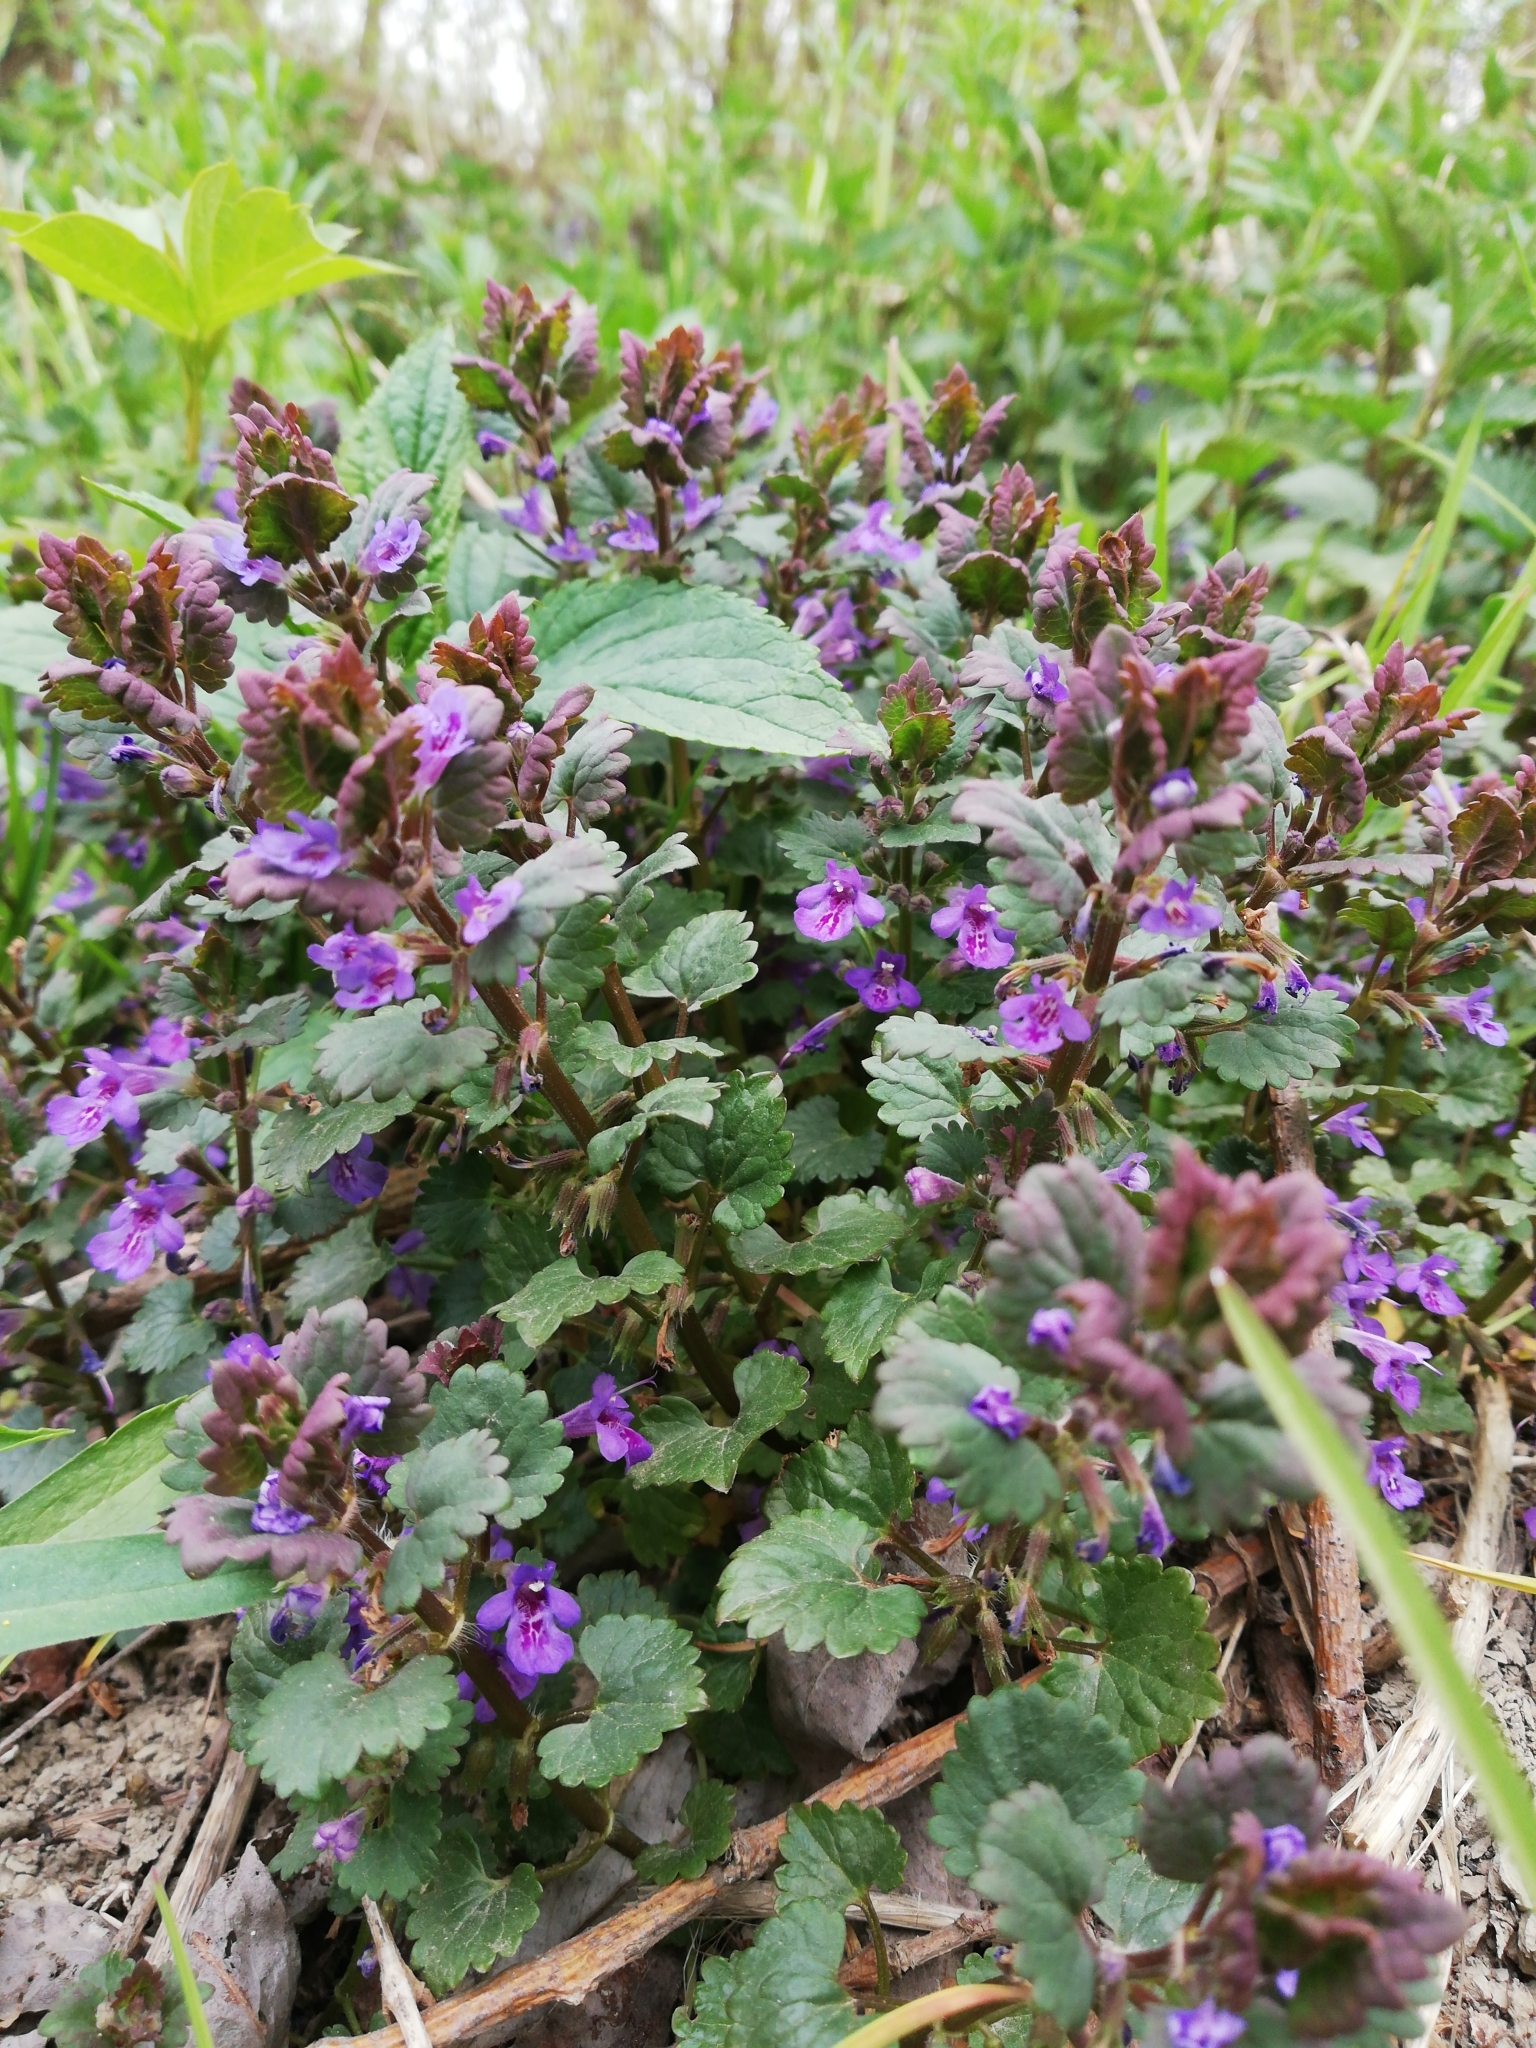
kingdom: Plantae
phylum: Tracheophyta
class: Magnoliopsida
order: Lamiales
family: Lamiaceae
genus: Glechoma
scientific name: Glechoma hederacea
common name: Ground ivy
